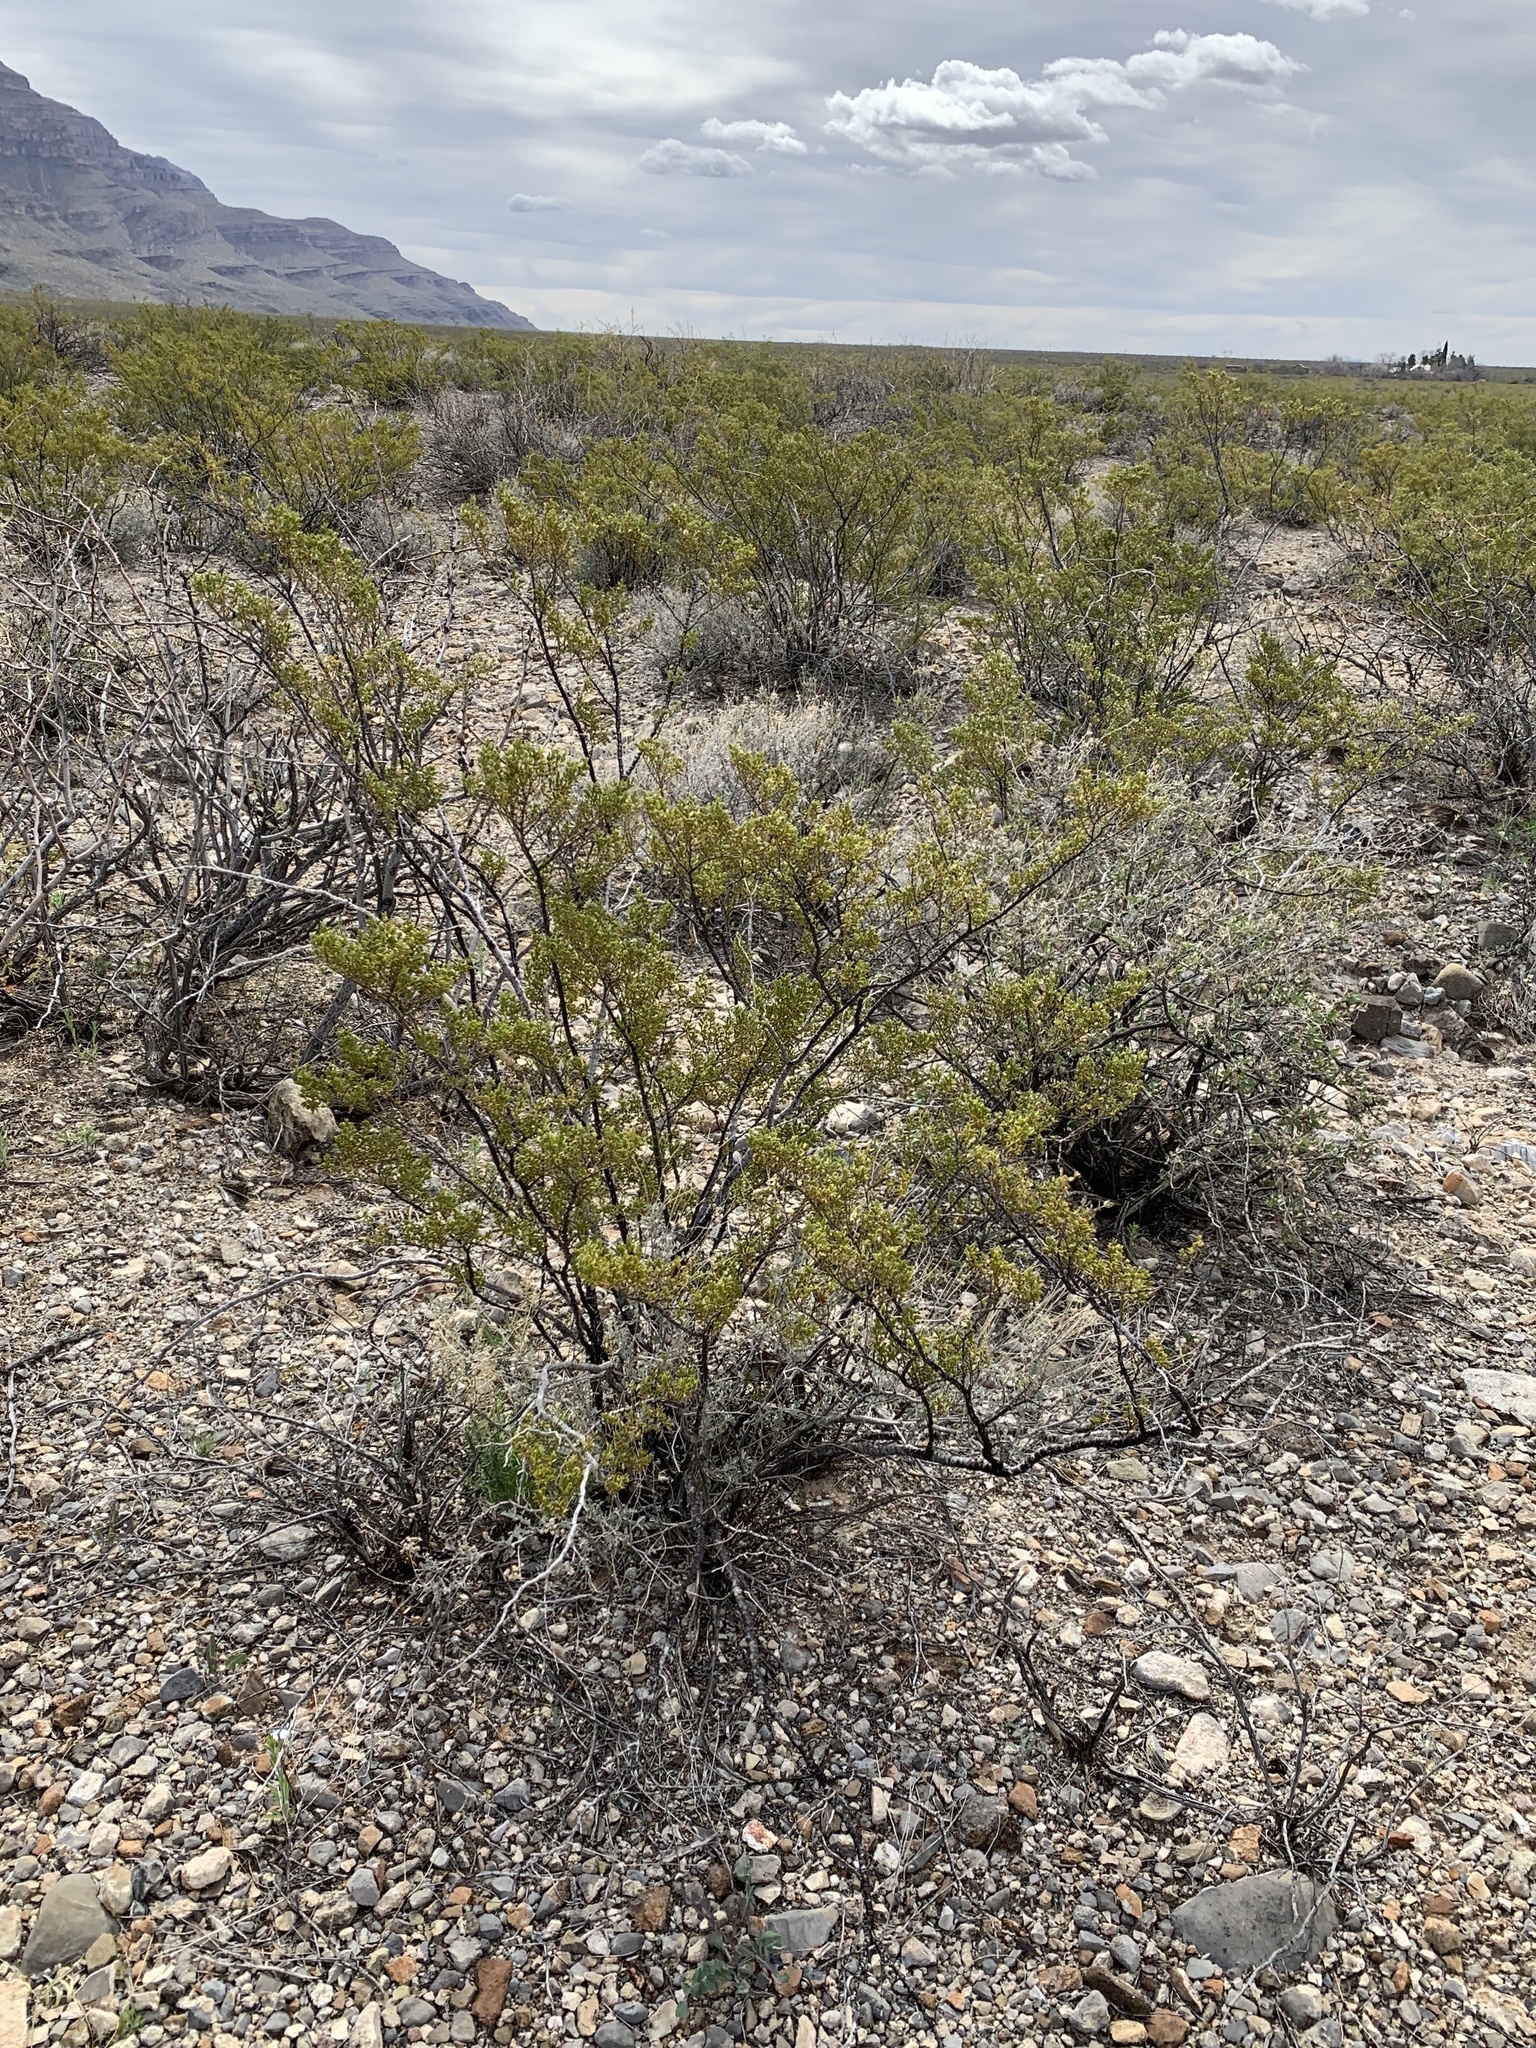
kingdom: Plantae
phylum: Tracheophyta
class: Magnoliopsida
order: Zygophyllales
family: Zygophyllaceae
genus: Larrea
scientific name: Larrea tridentata
